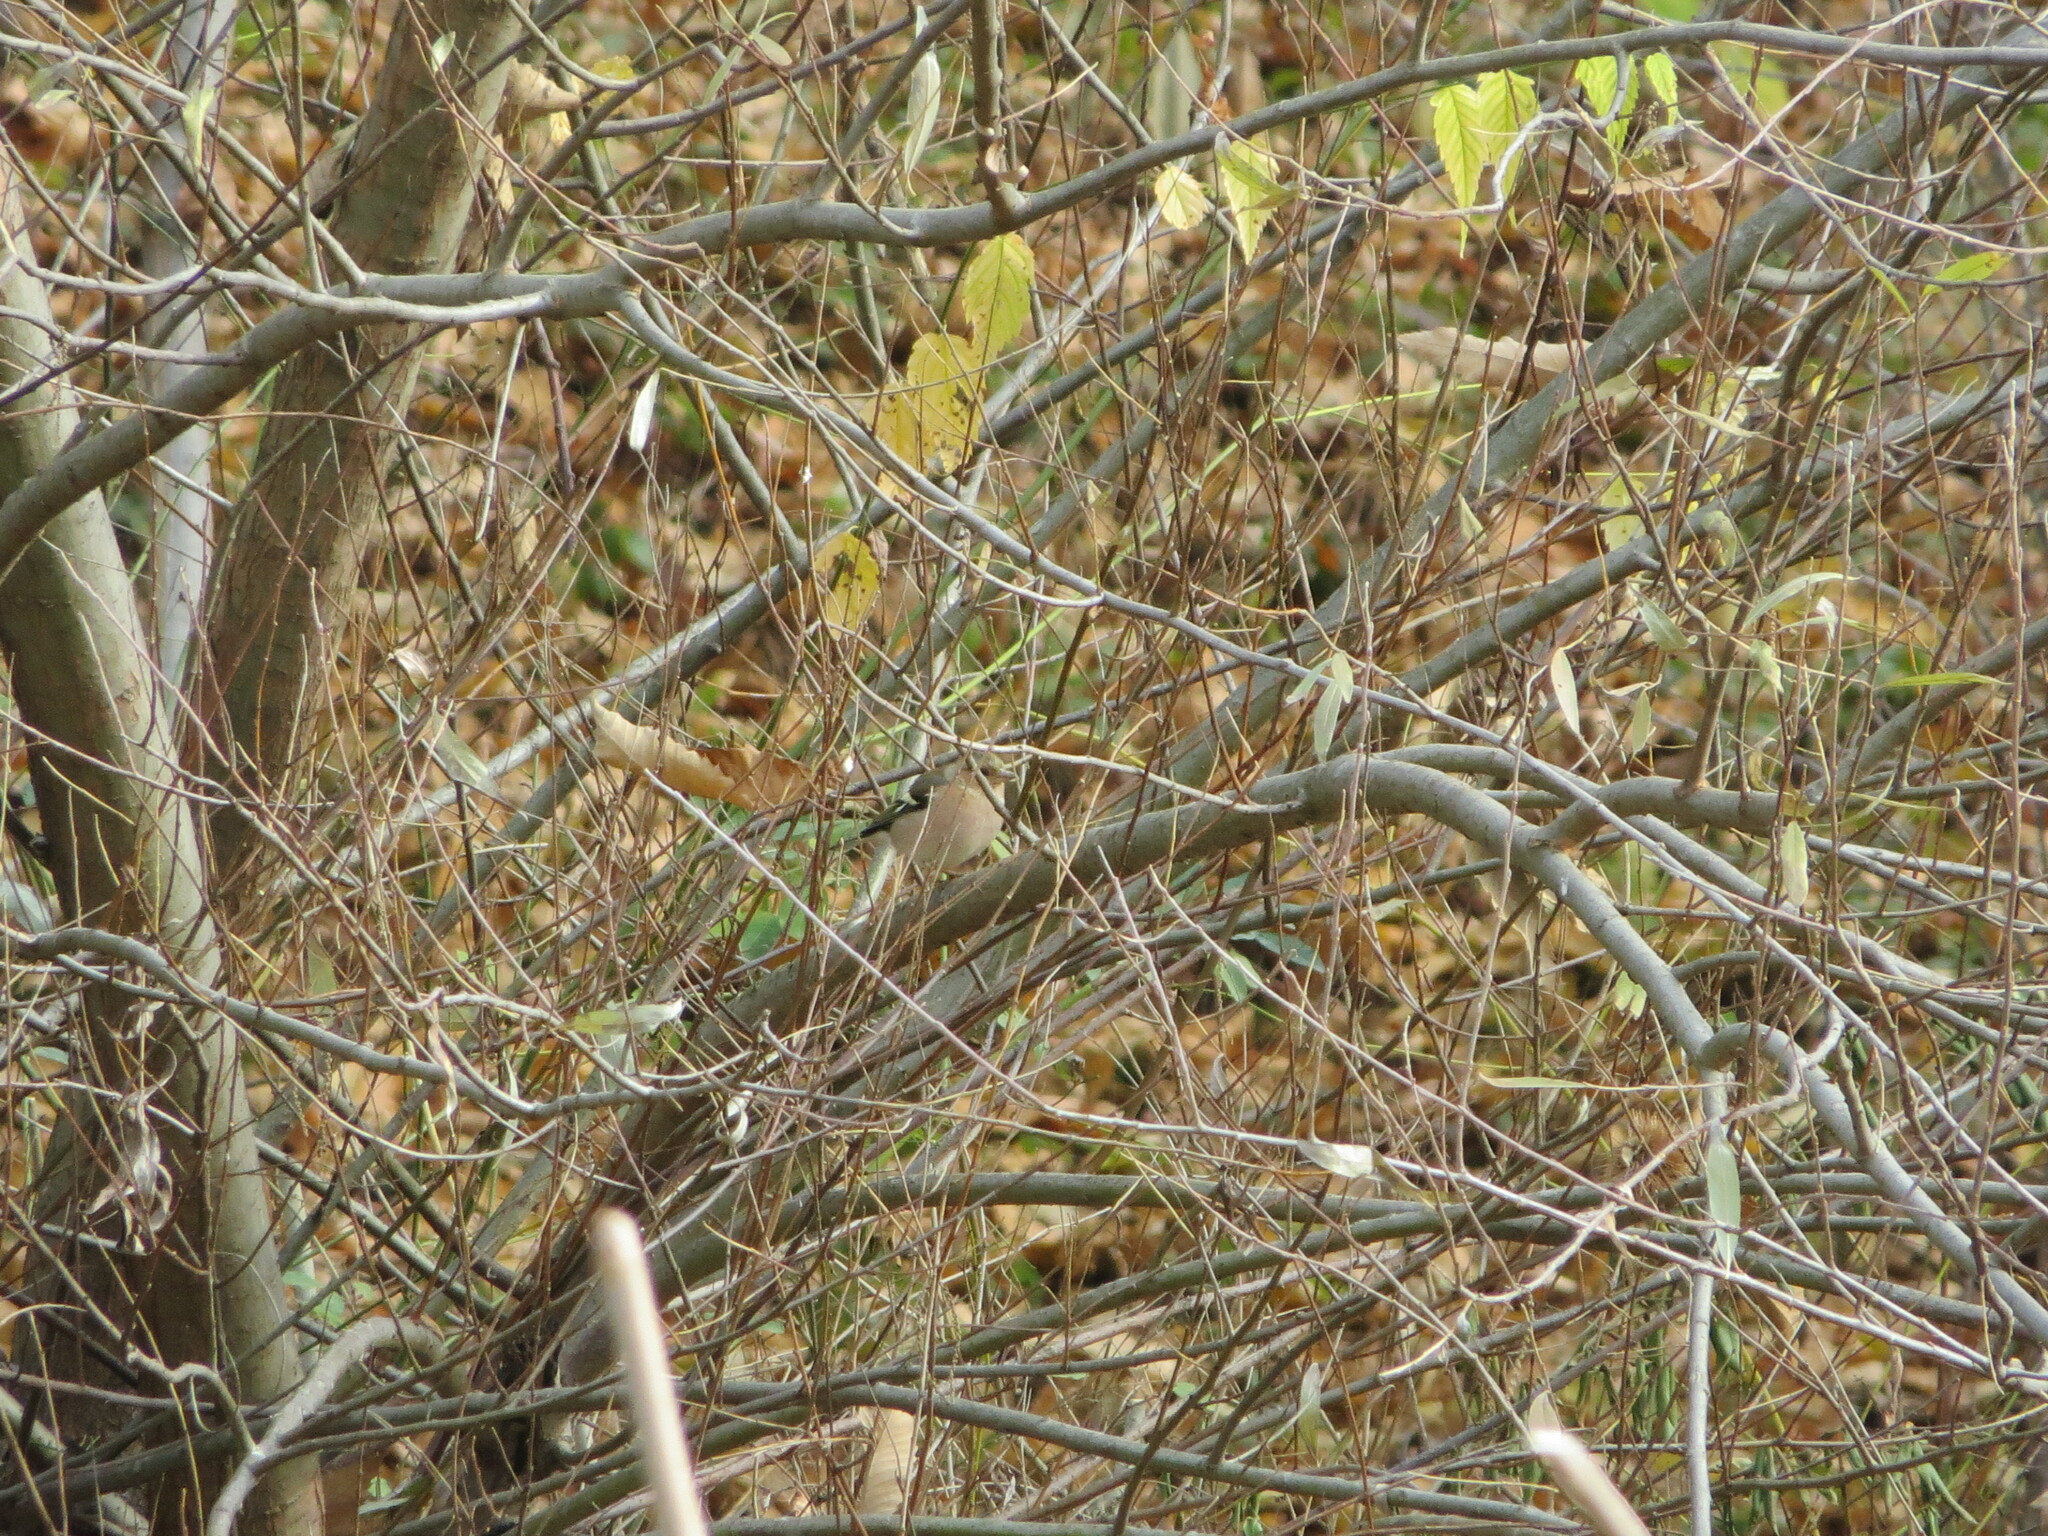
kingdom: Animalia
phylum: Chordata
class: Aves
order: Passeriformes
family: Fringillidae
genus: Fringilla
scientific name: Fringilla coelebs
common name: Common chaffinch
